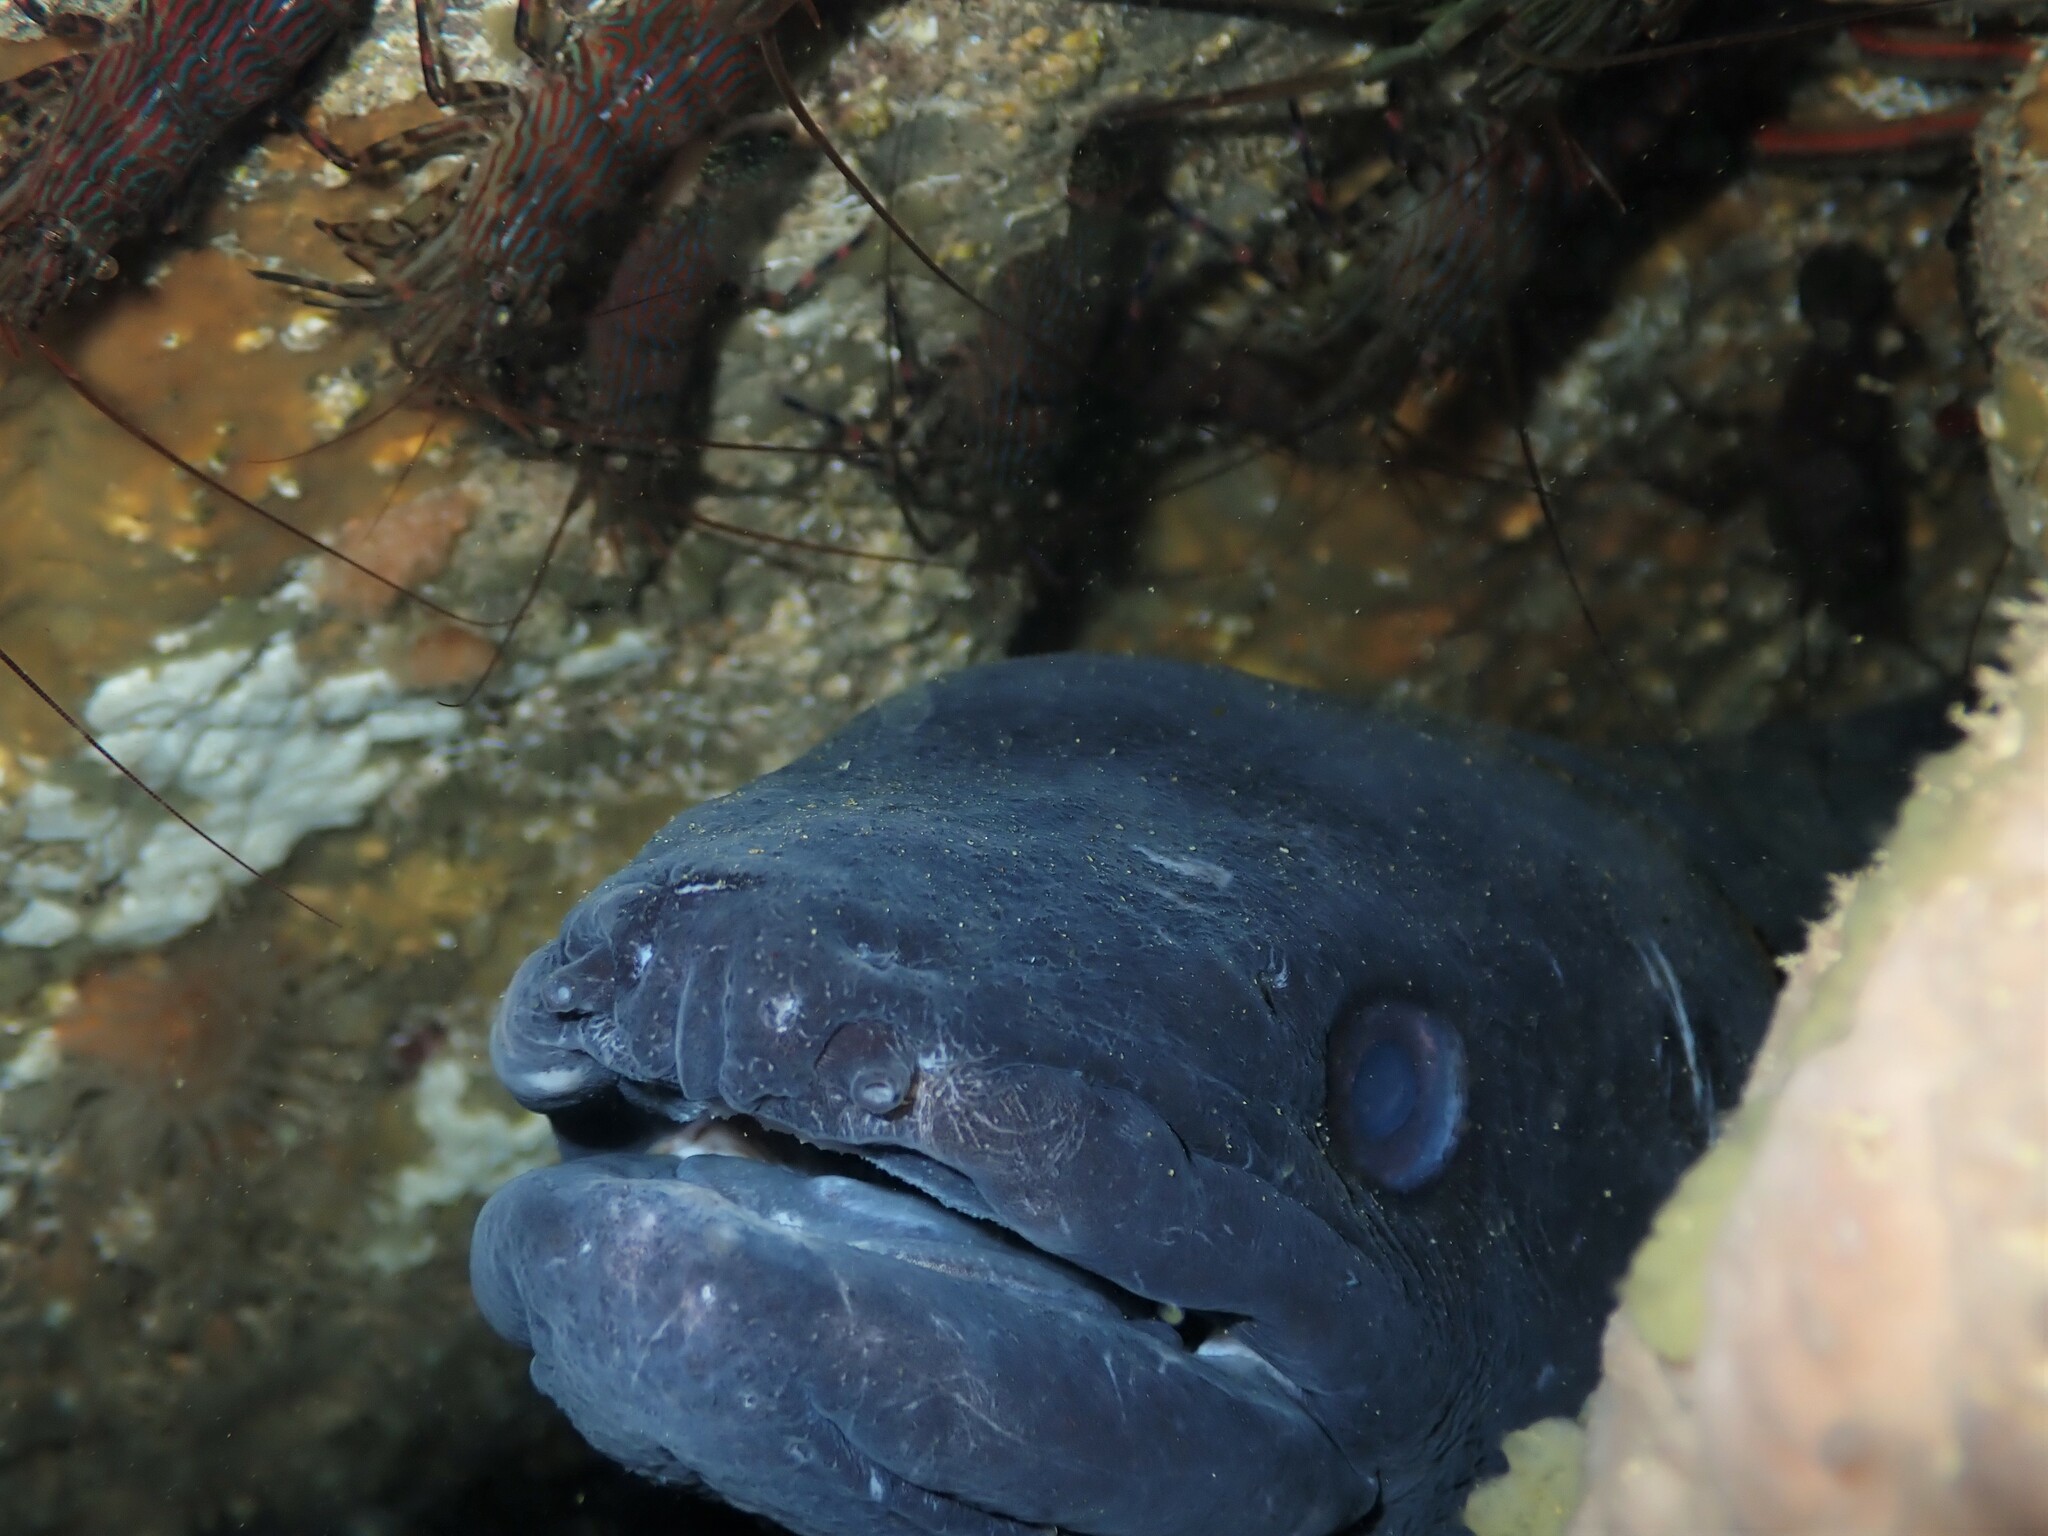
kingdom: Animalia
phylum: Chordata
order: Anguilliformes
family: Congridae
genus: Conger
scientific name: Conger verreauxi
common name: Conger eel
